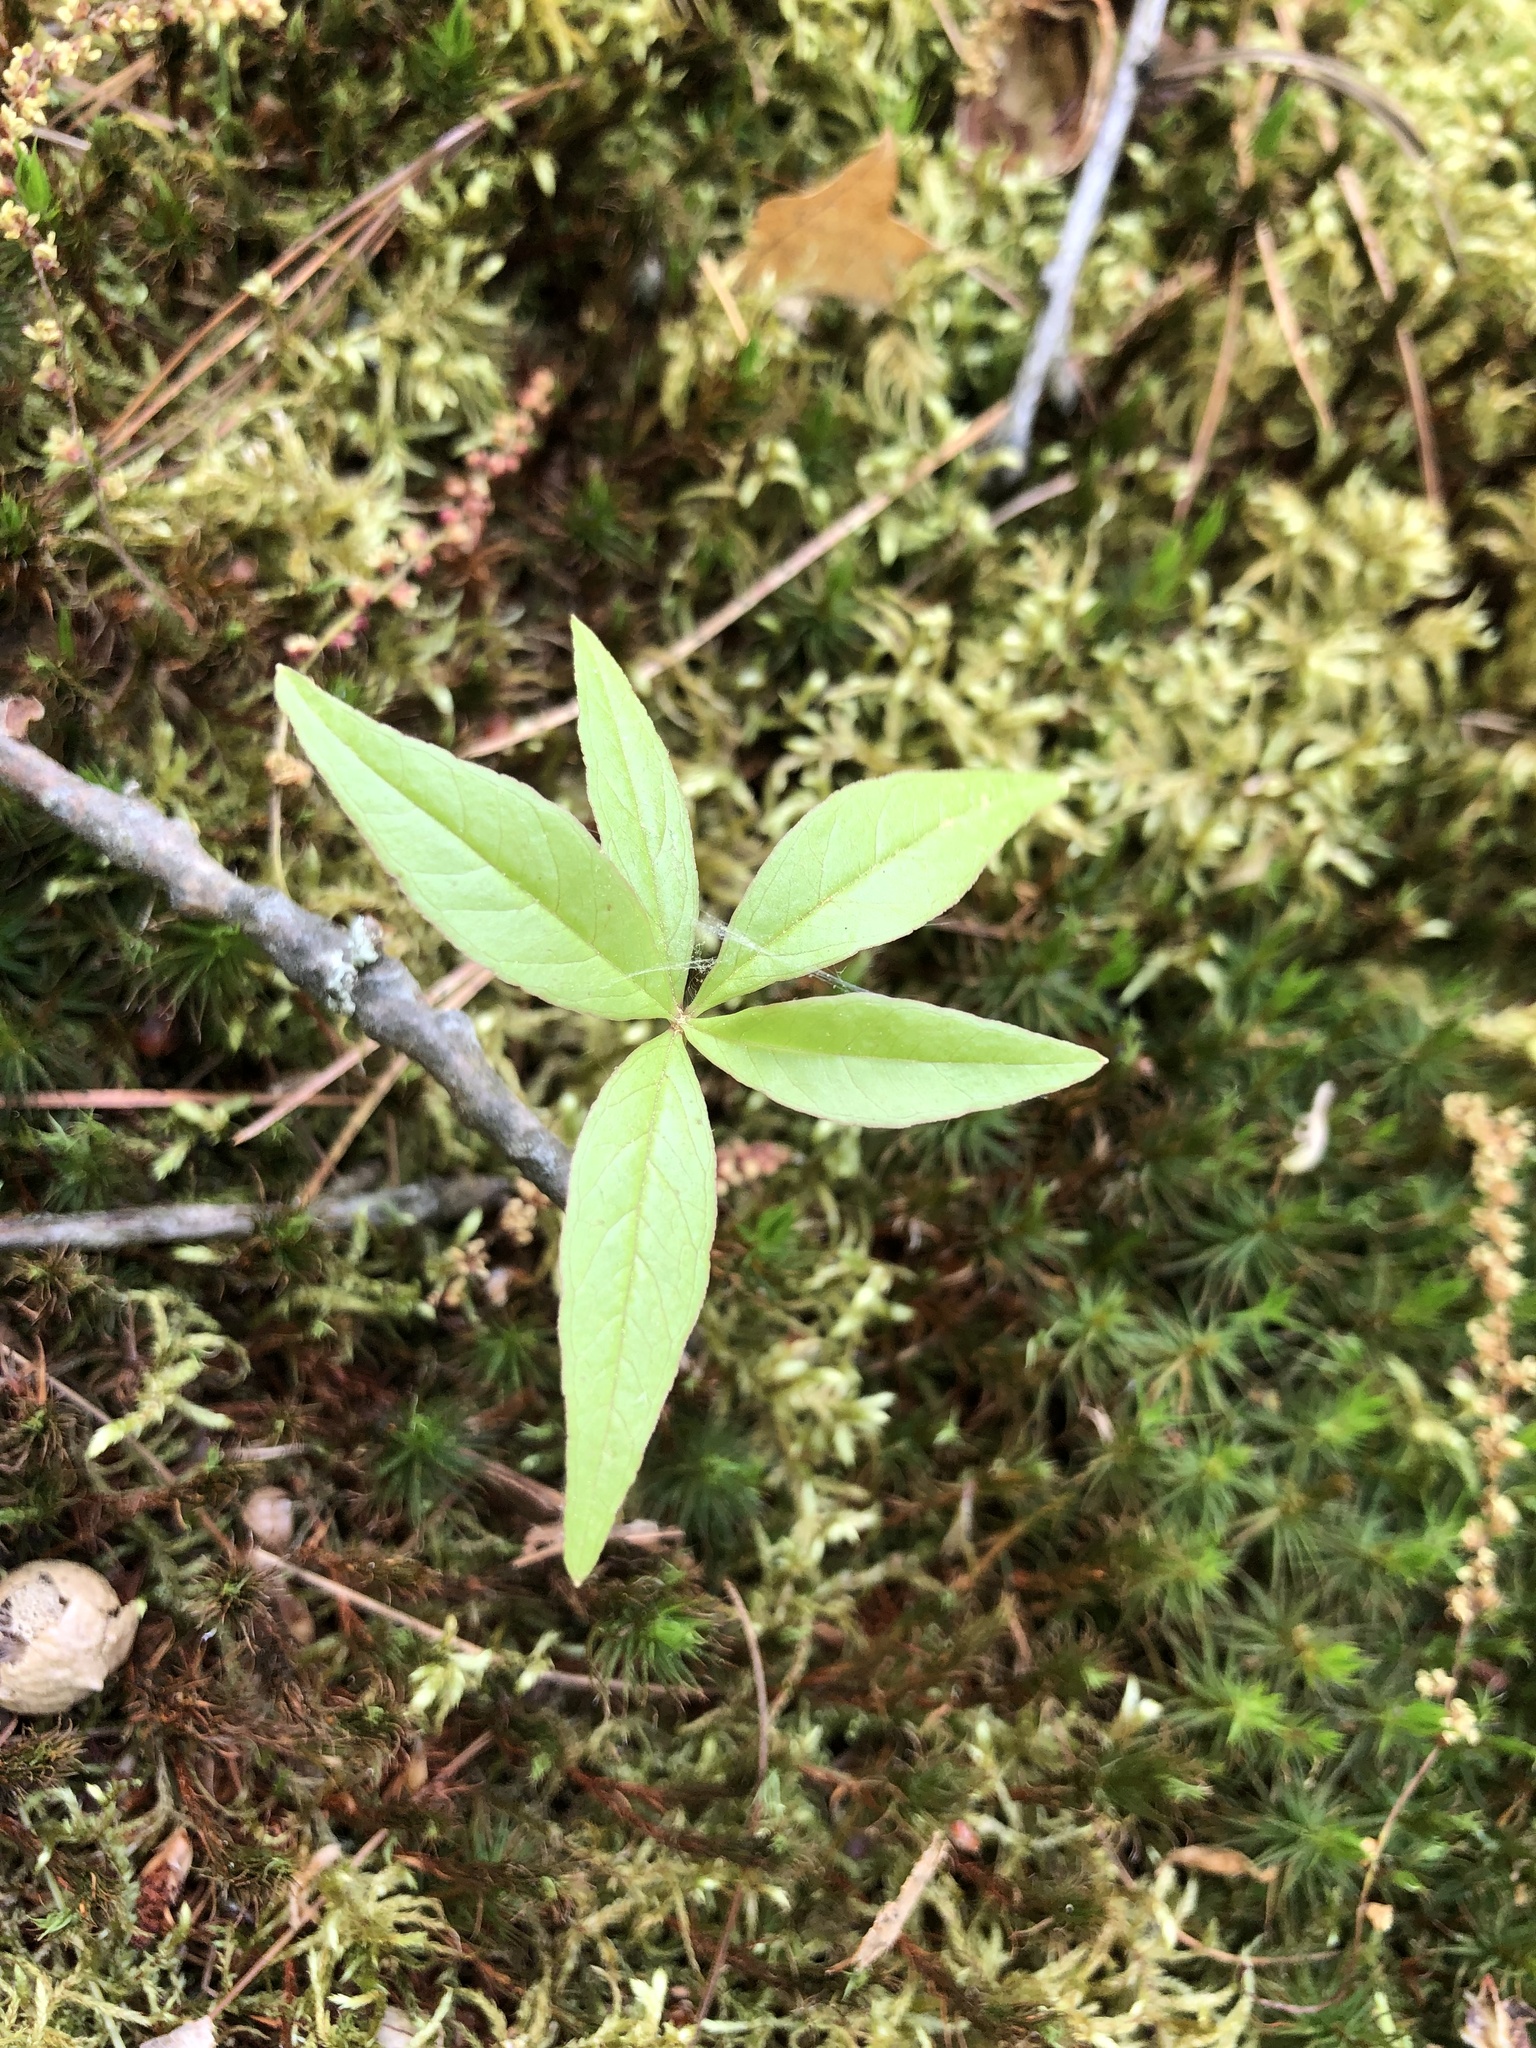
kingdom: Plantae
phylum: Tracheophyta
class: Magnoliopsida
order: Ericales
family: Primulaceae
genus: Lysimachia
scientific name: Lysimachia borealis
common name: American starflower
